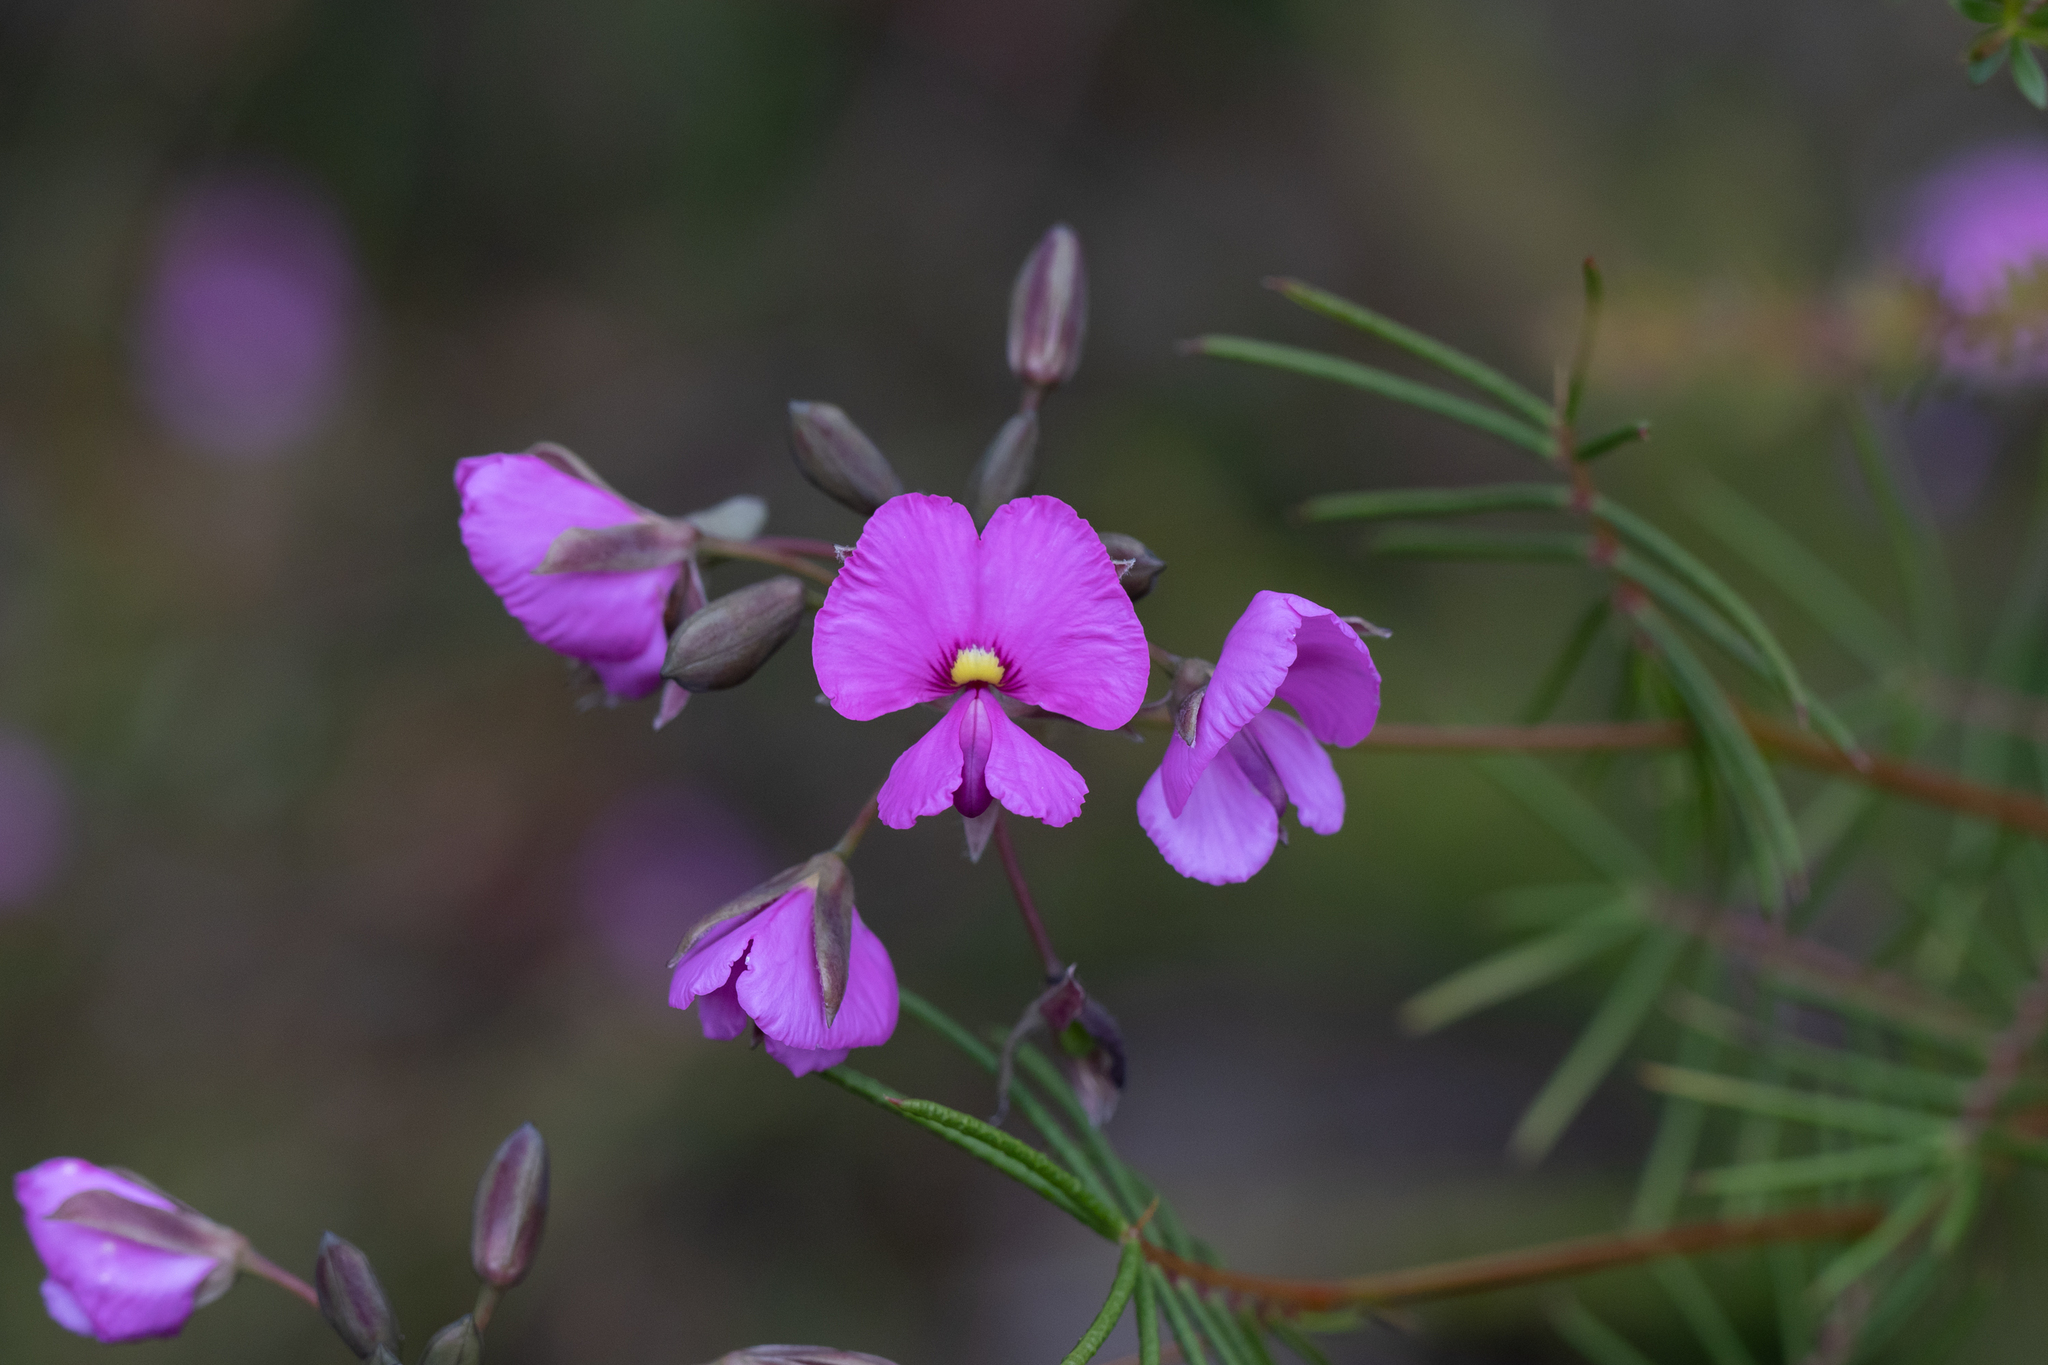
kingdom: Plantae
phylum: Tracheophyta
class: Magnoliopsida
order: Fabales
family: Fabaceae
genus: Gompholobium
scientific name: Gompholobium venustum
